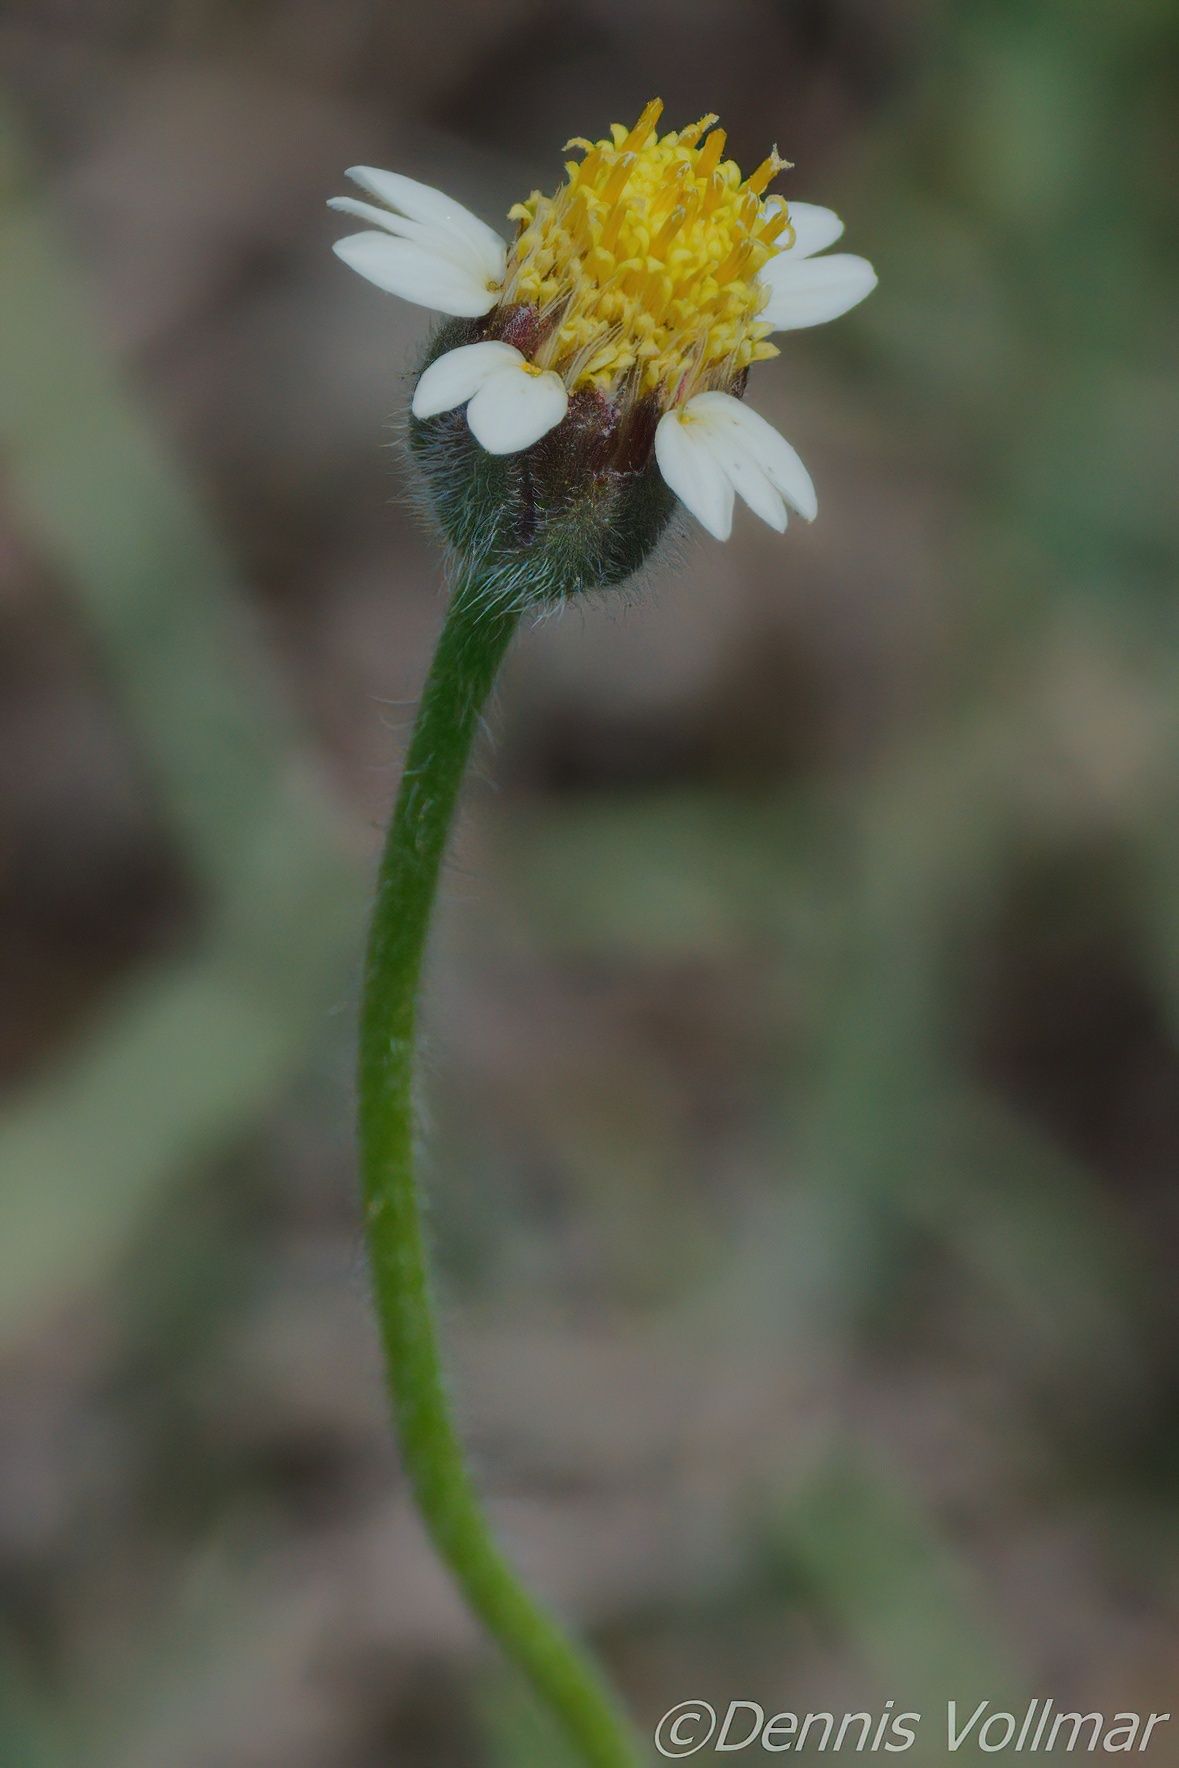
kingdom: Plantae
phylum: Tracheophyta
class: Magnoliopsida
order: Asterales
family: Asteraceae
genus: Tridax
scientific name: Tridax procumbens
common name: Coatbuttons
